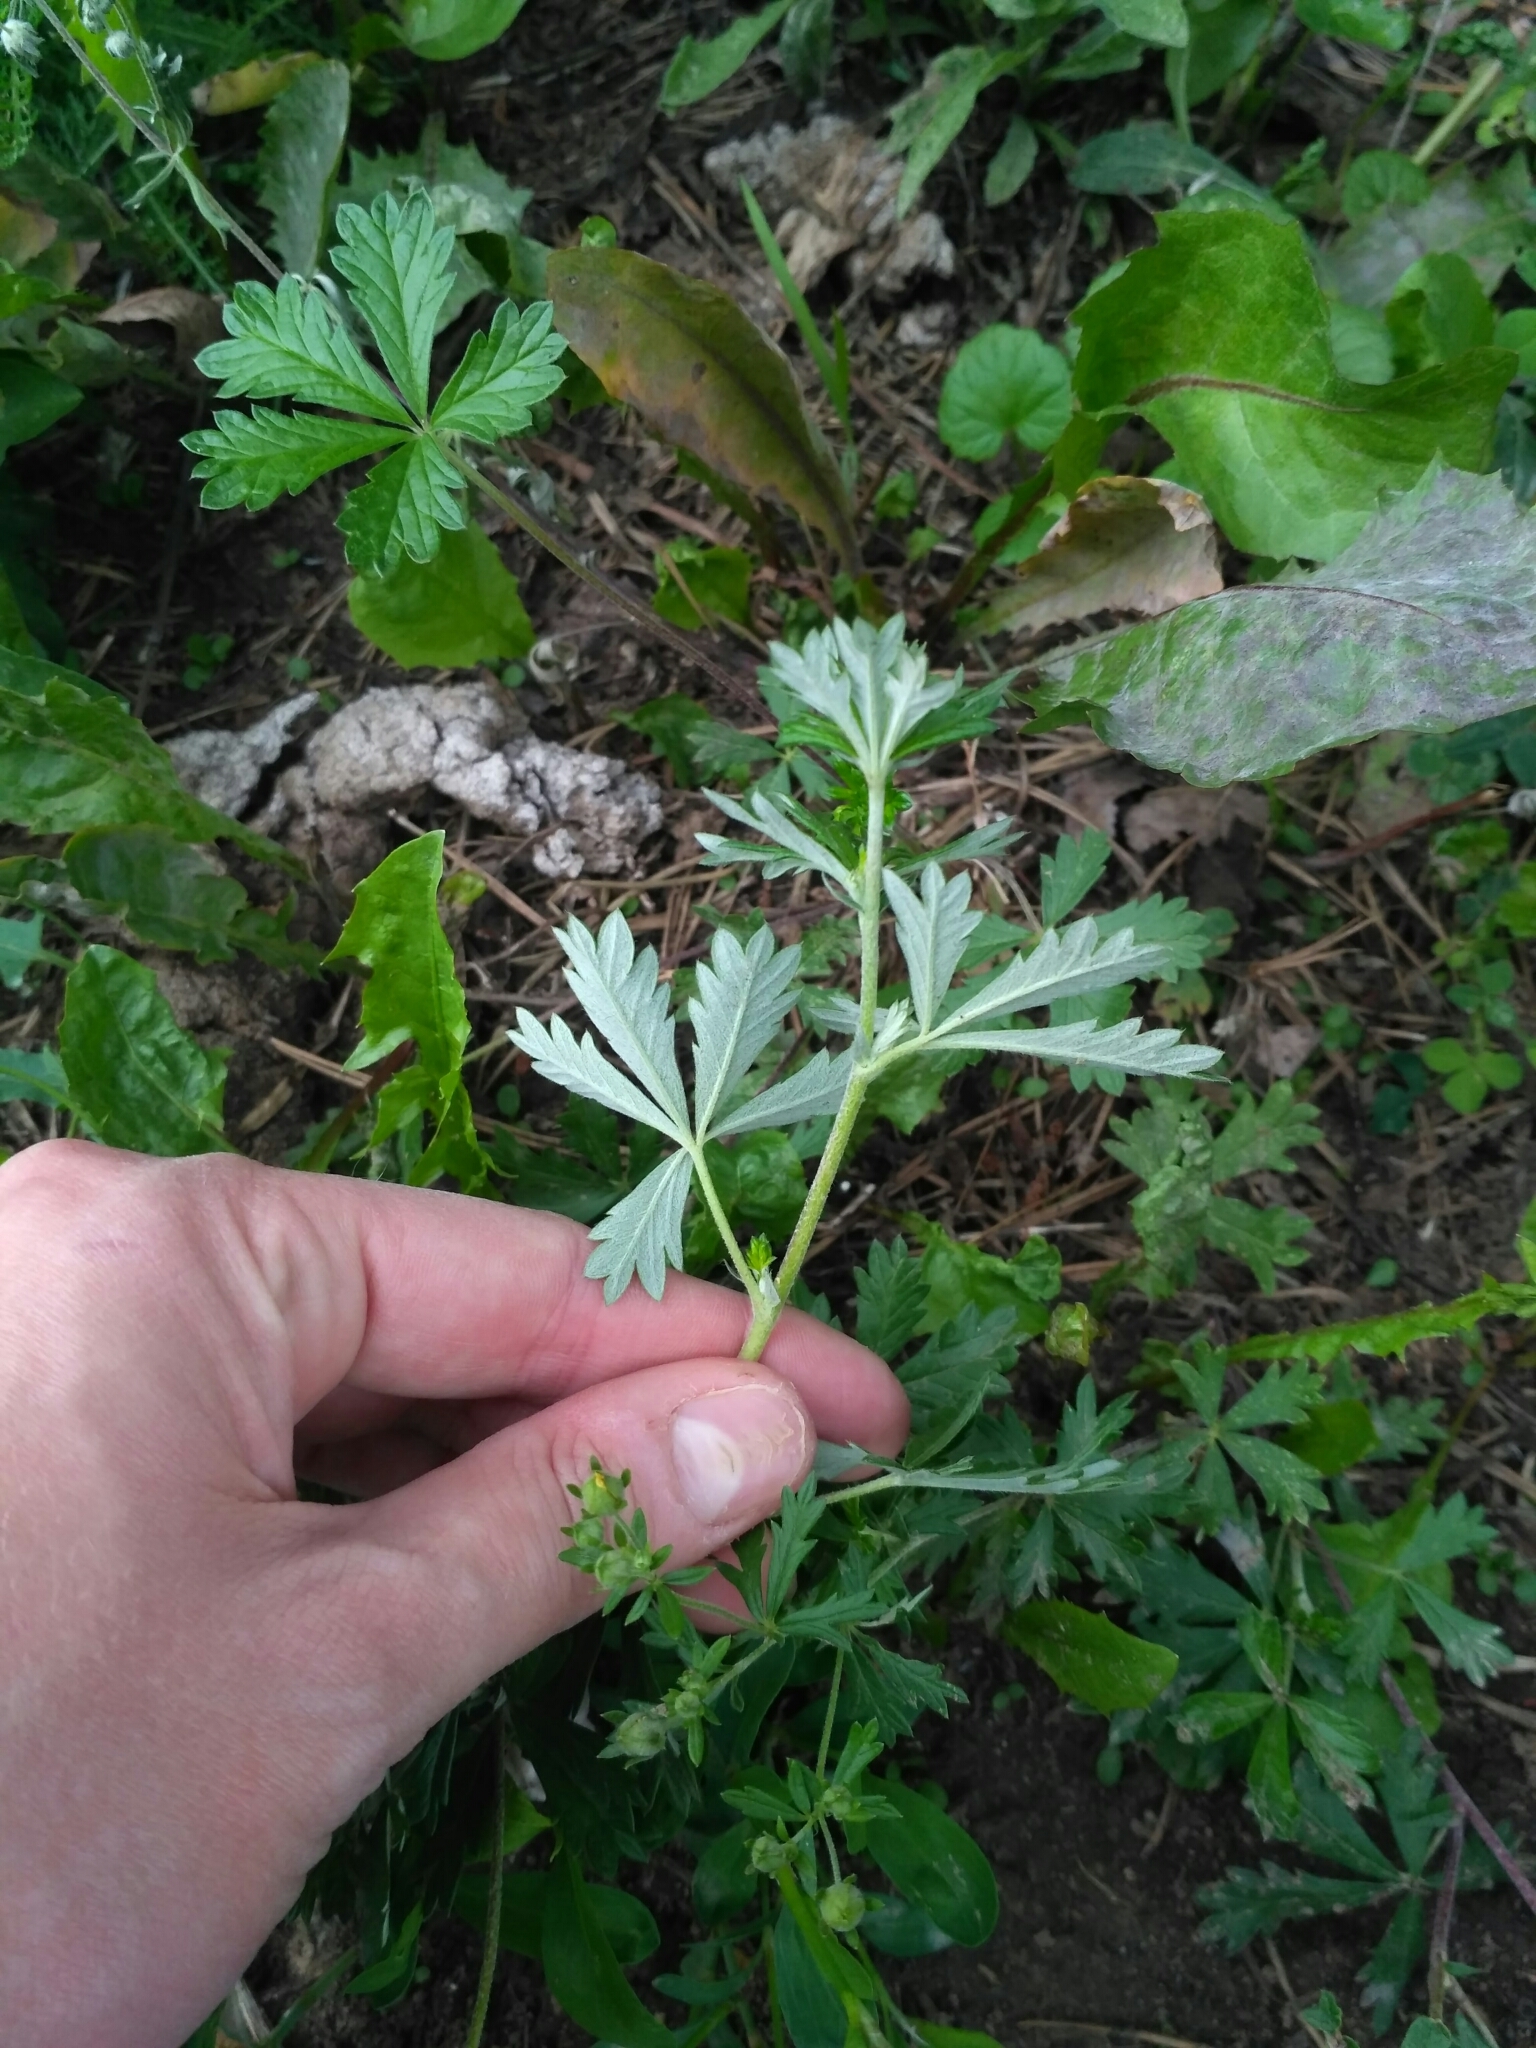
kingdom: Plantae
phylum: Tracheophyta
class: Magnoliopsida
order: Rosales
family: Rosaceae
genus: Potentilla
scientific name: Potentilla argentea
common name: Hoary cinquefoil
